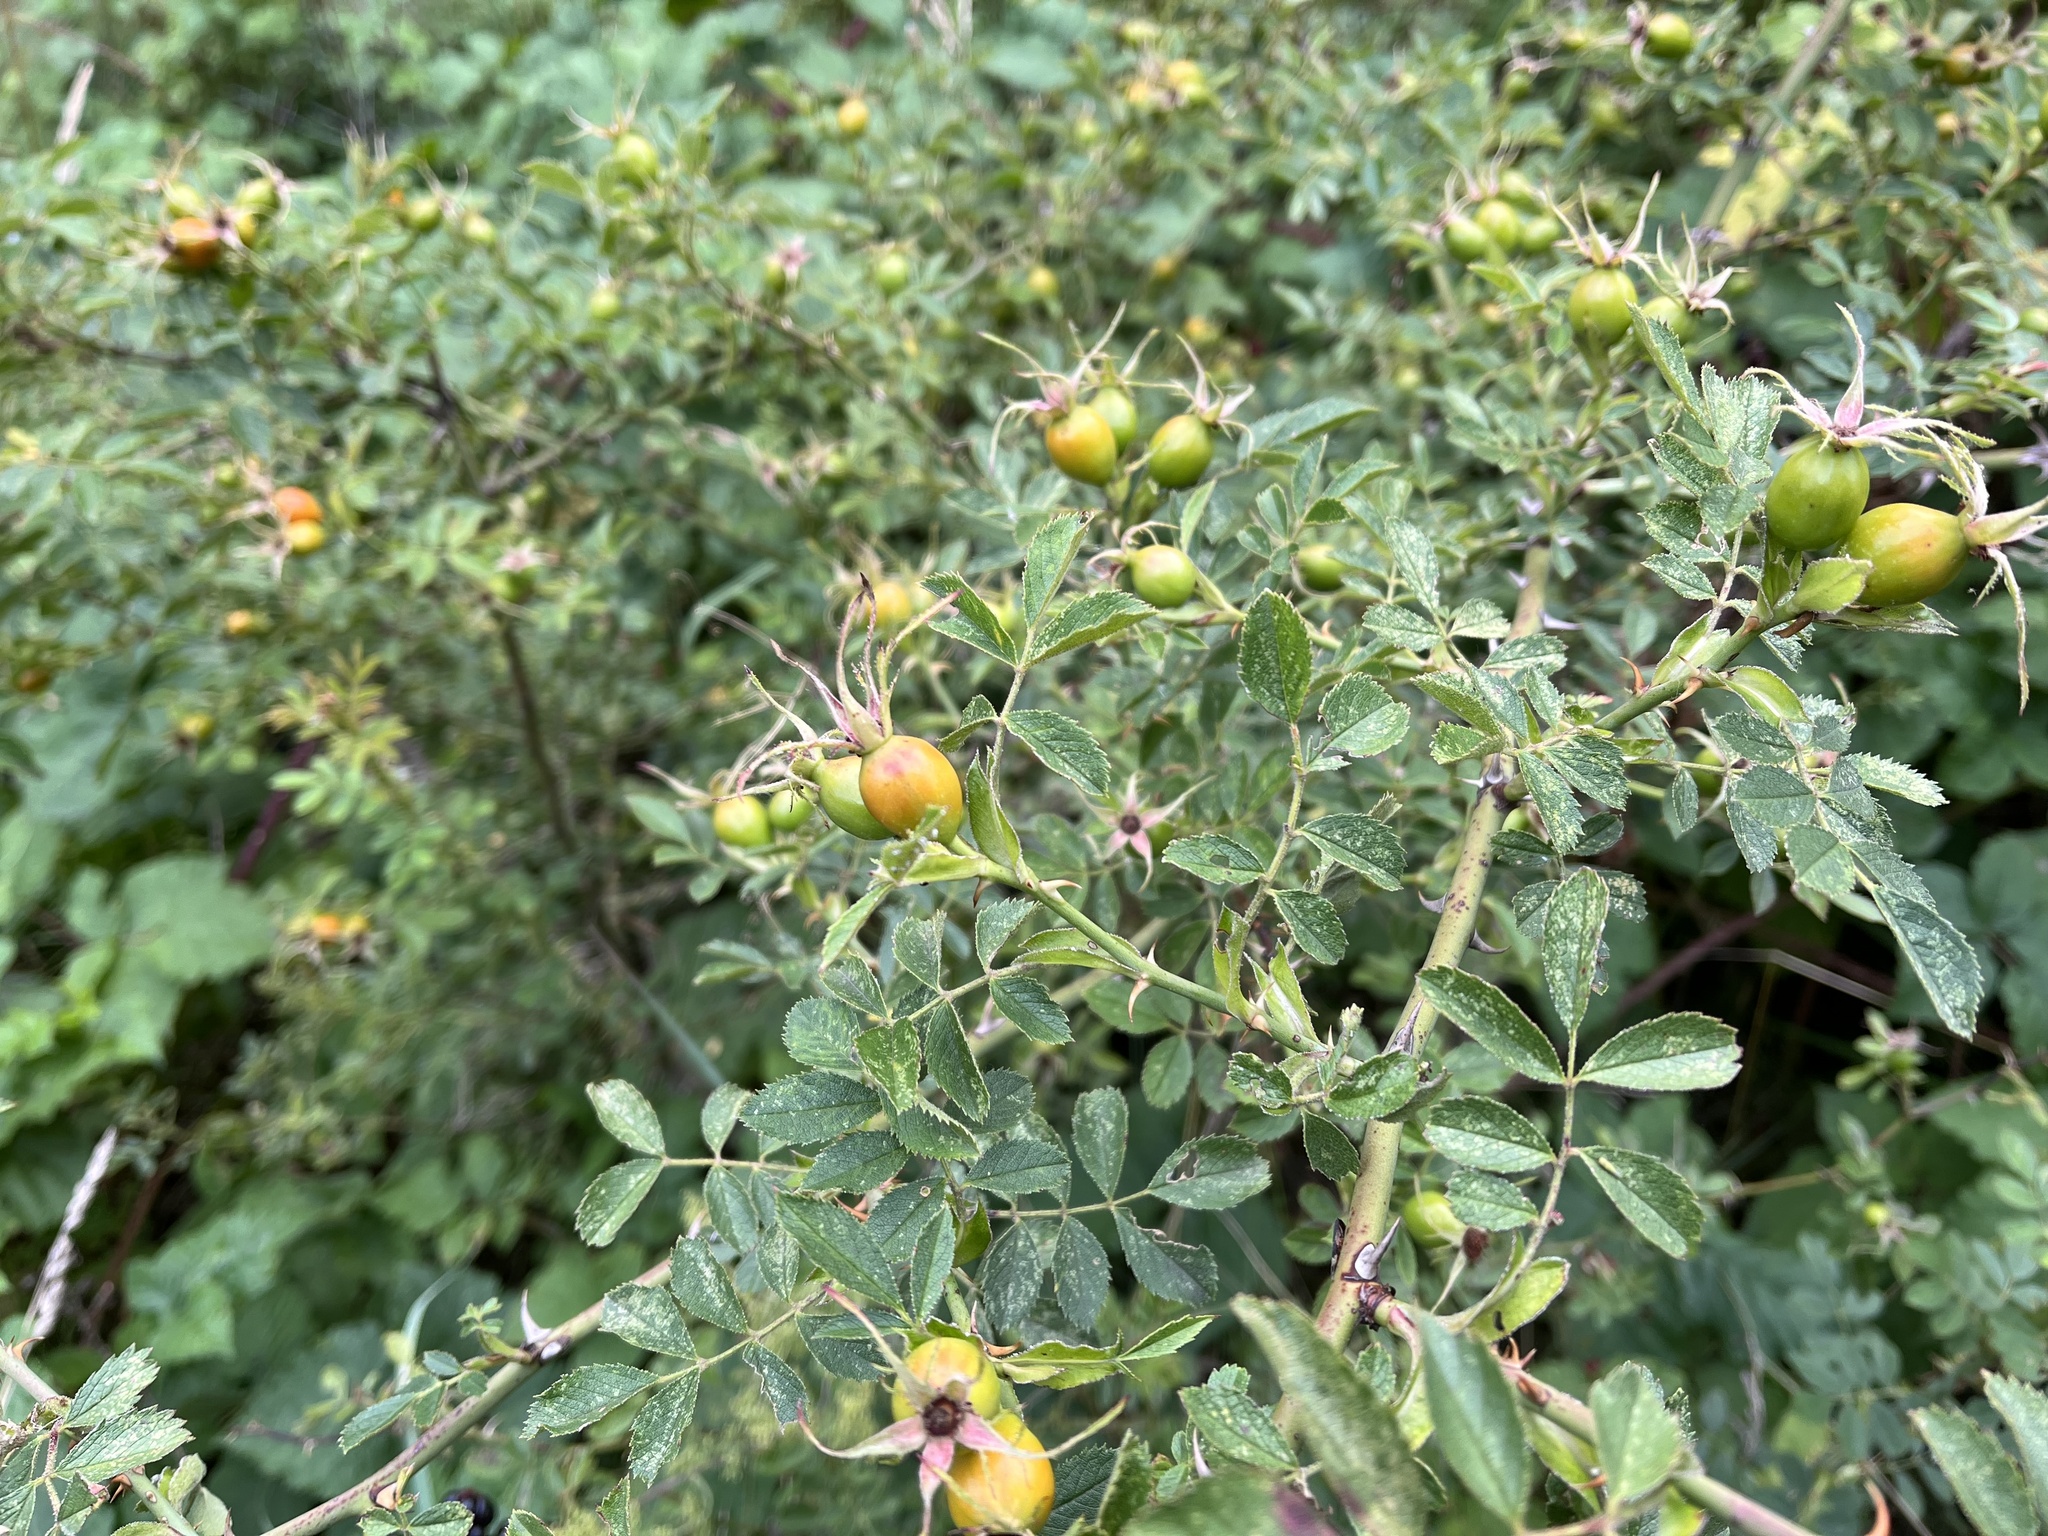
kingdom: Plantae
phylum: Tracheophyta
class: Magnoliopsida
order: Rosales
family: Rosaceae
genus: Rosa
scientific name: Rosa inodora
